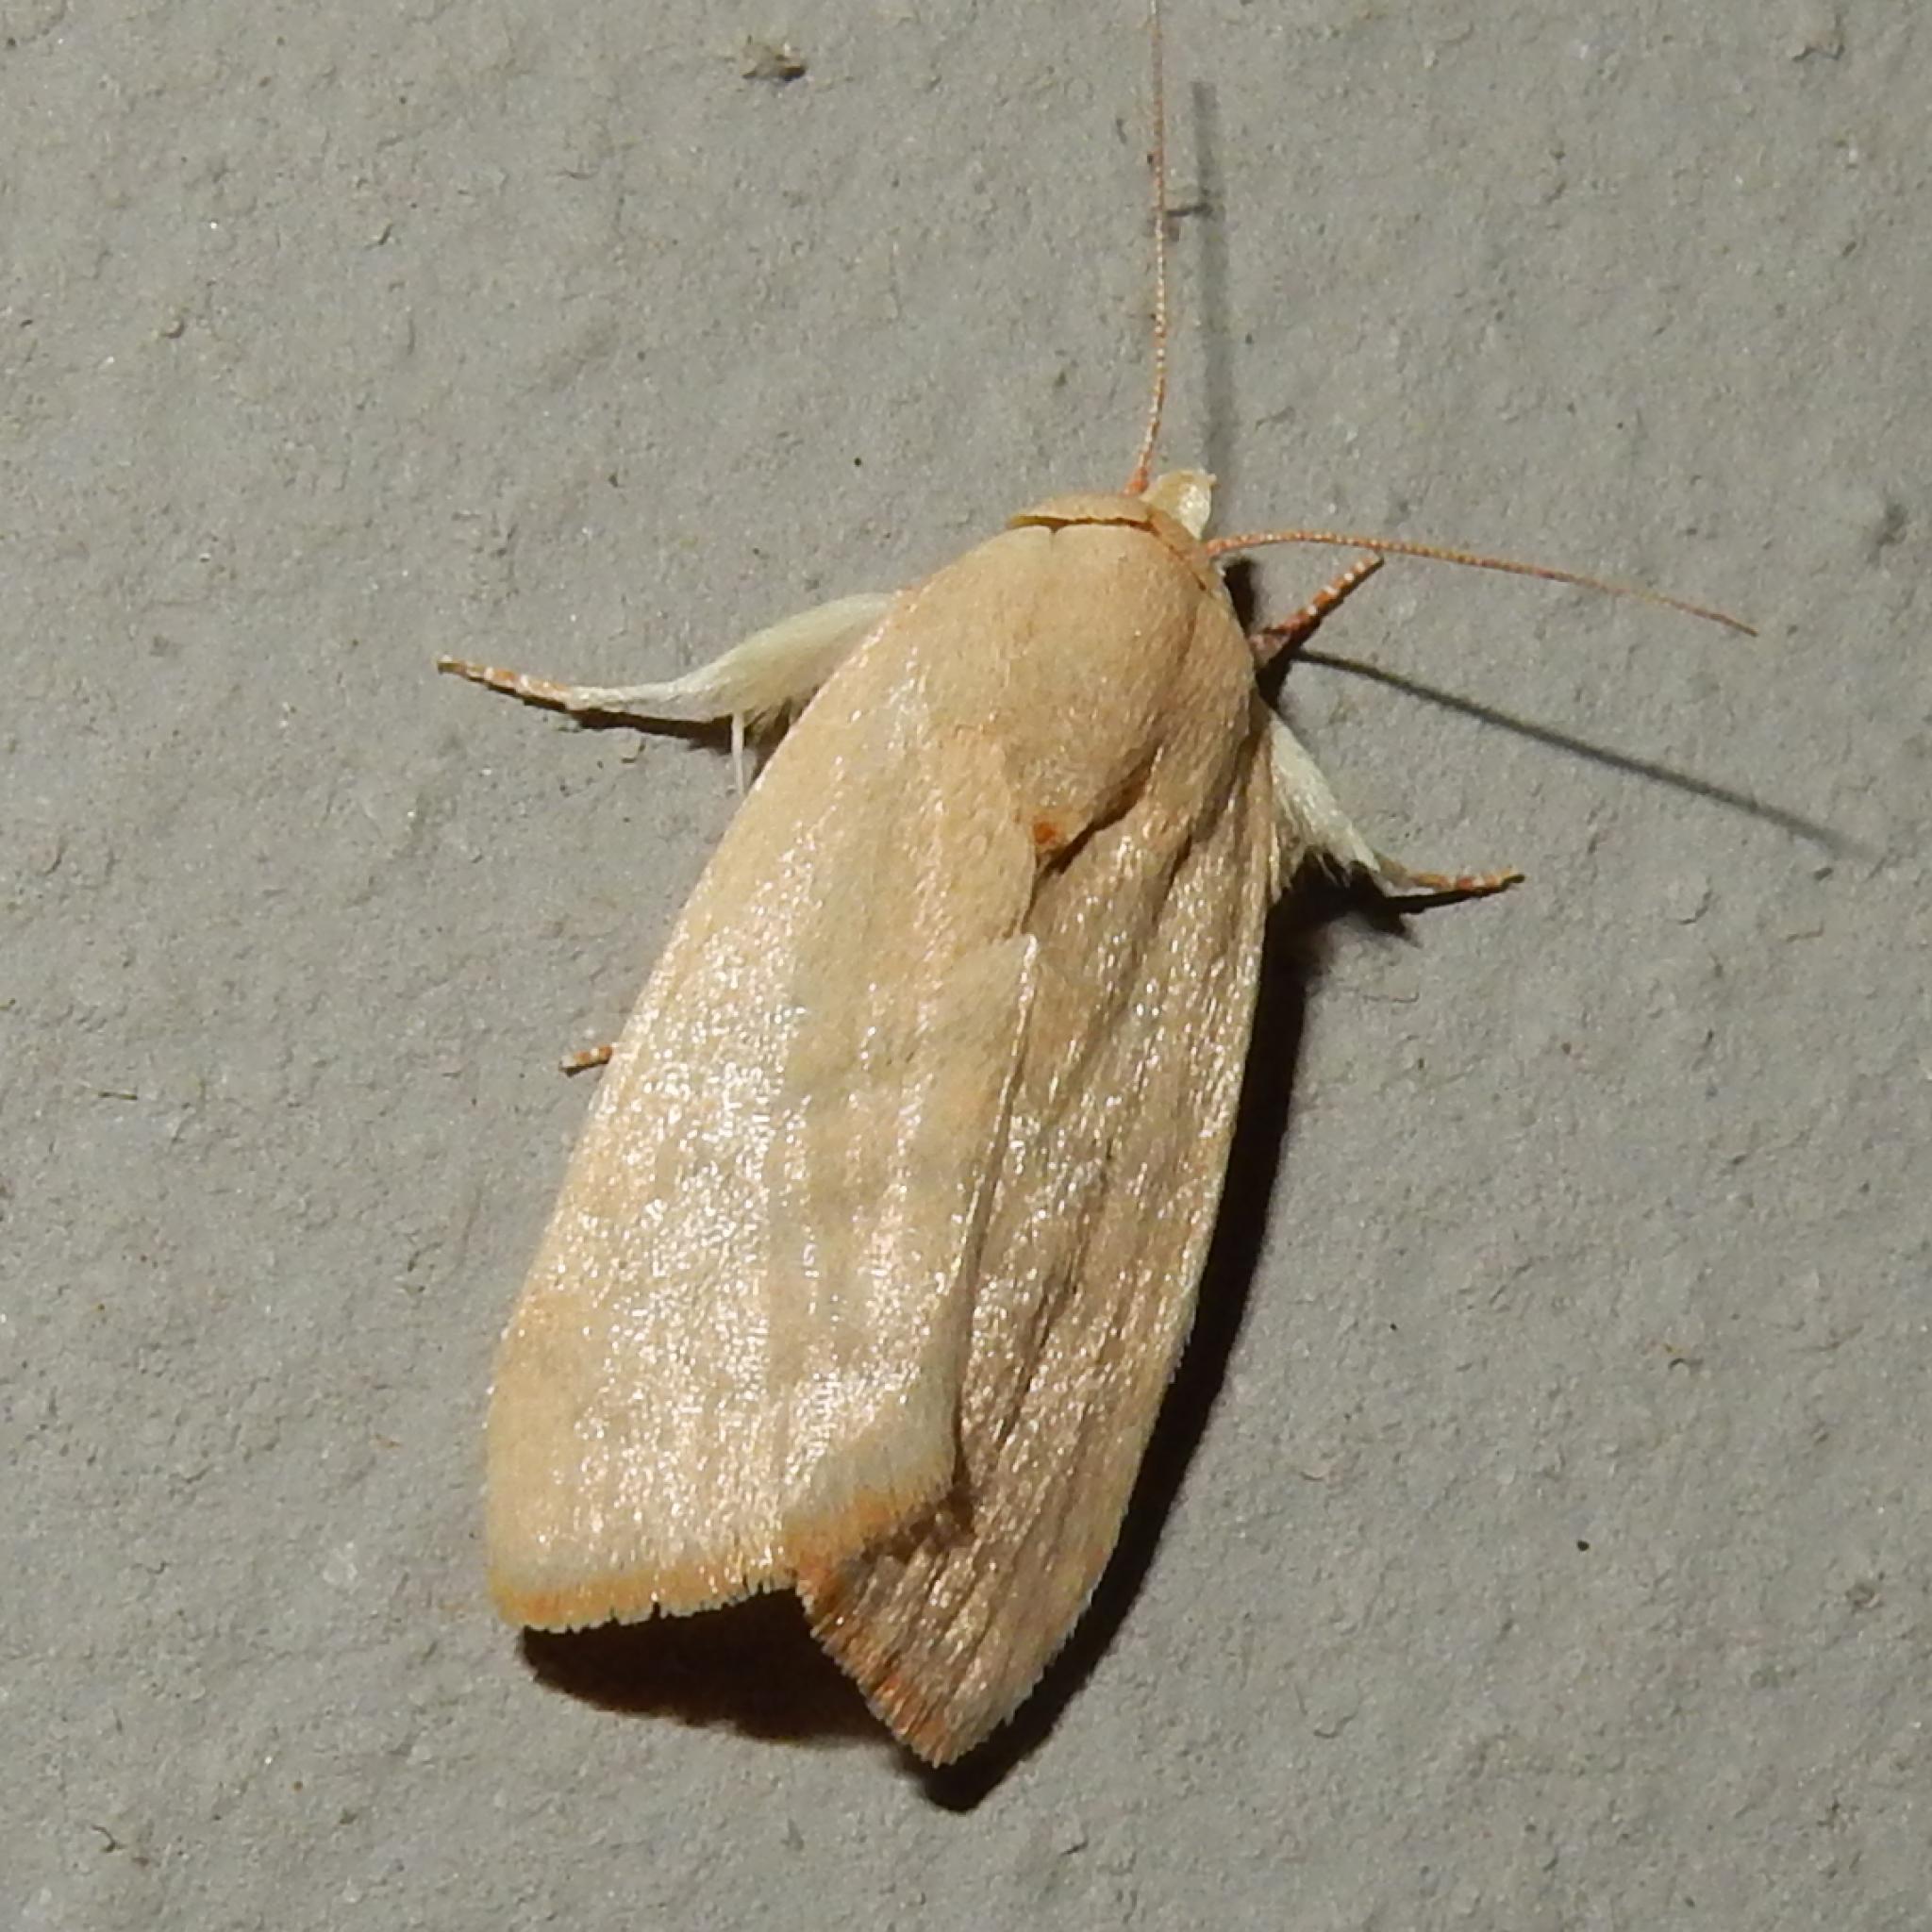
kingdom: Animalia
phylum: Arthropoda
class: Insecta
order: Lepidoptera
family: Nolidae
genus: Maurilia
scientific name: Maurilia arcuata
